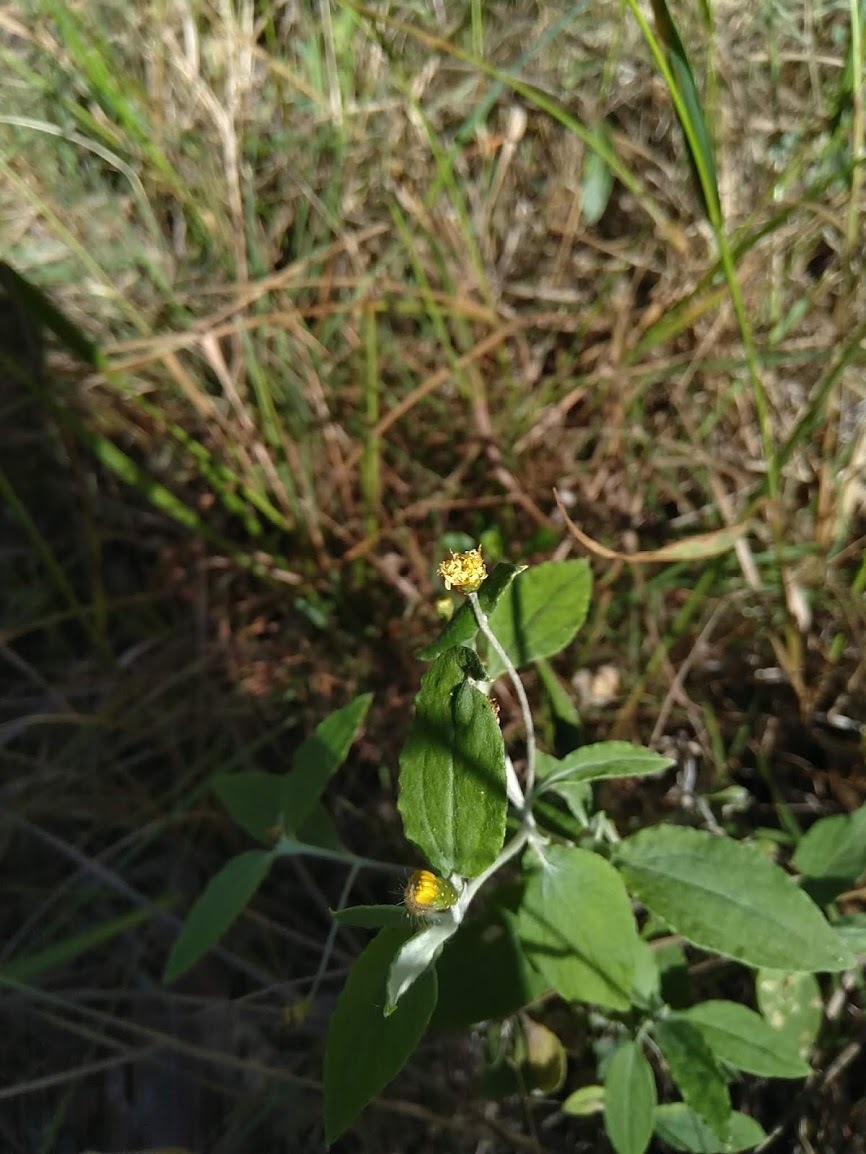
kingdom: Plantae
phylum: Tracheophyta
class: Magnoliopsida
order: Asterales
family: Asteraceae
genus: Acomis
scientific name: Acomis acoma
